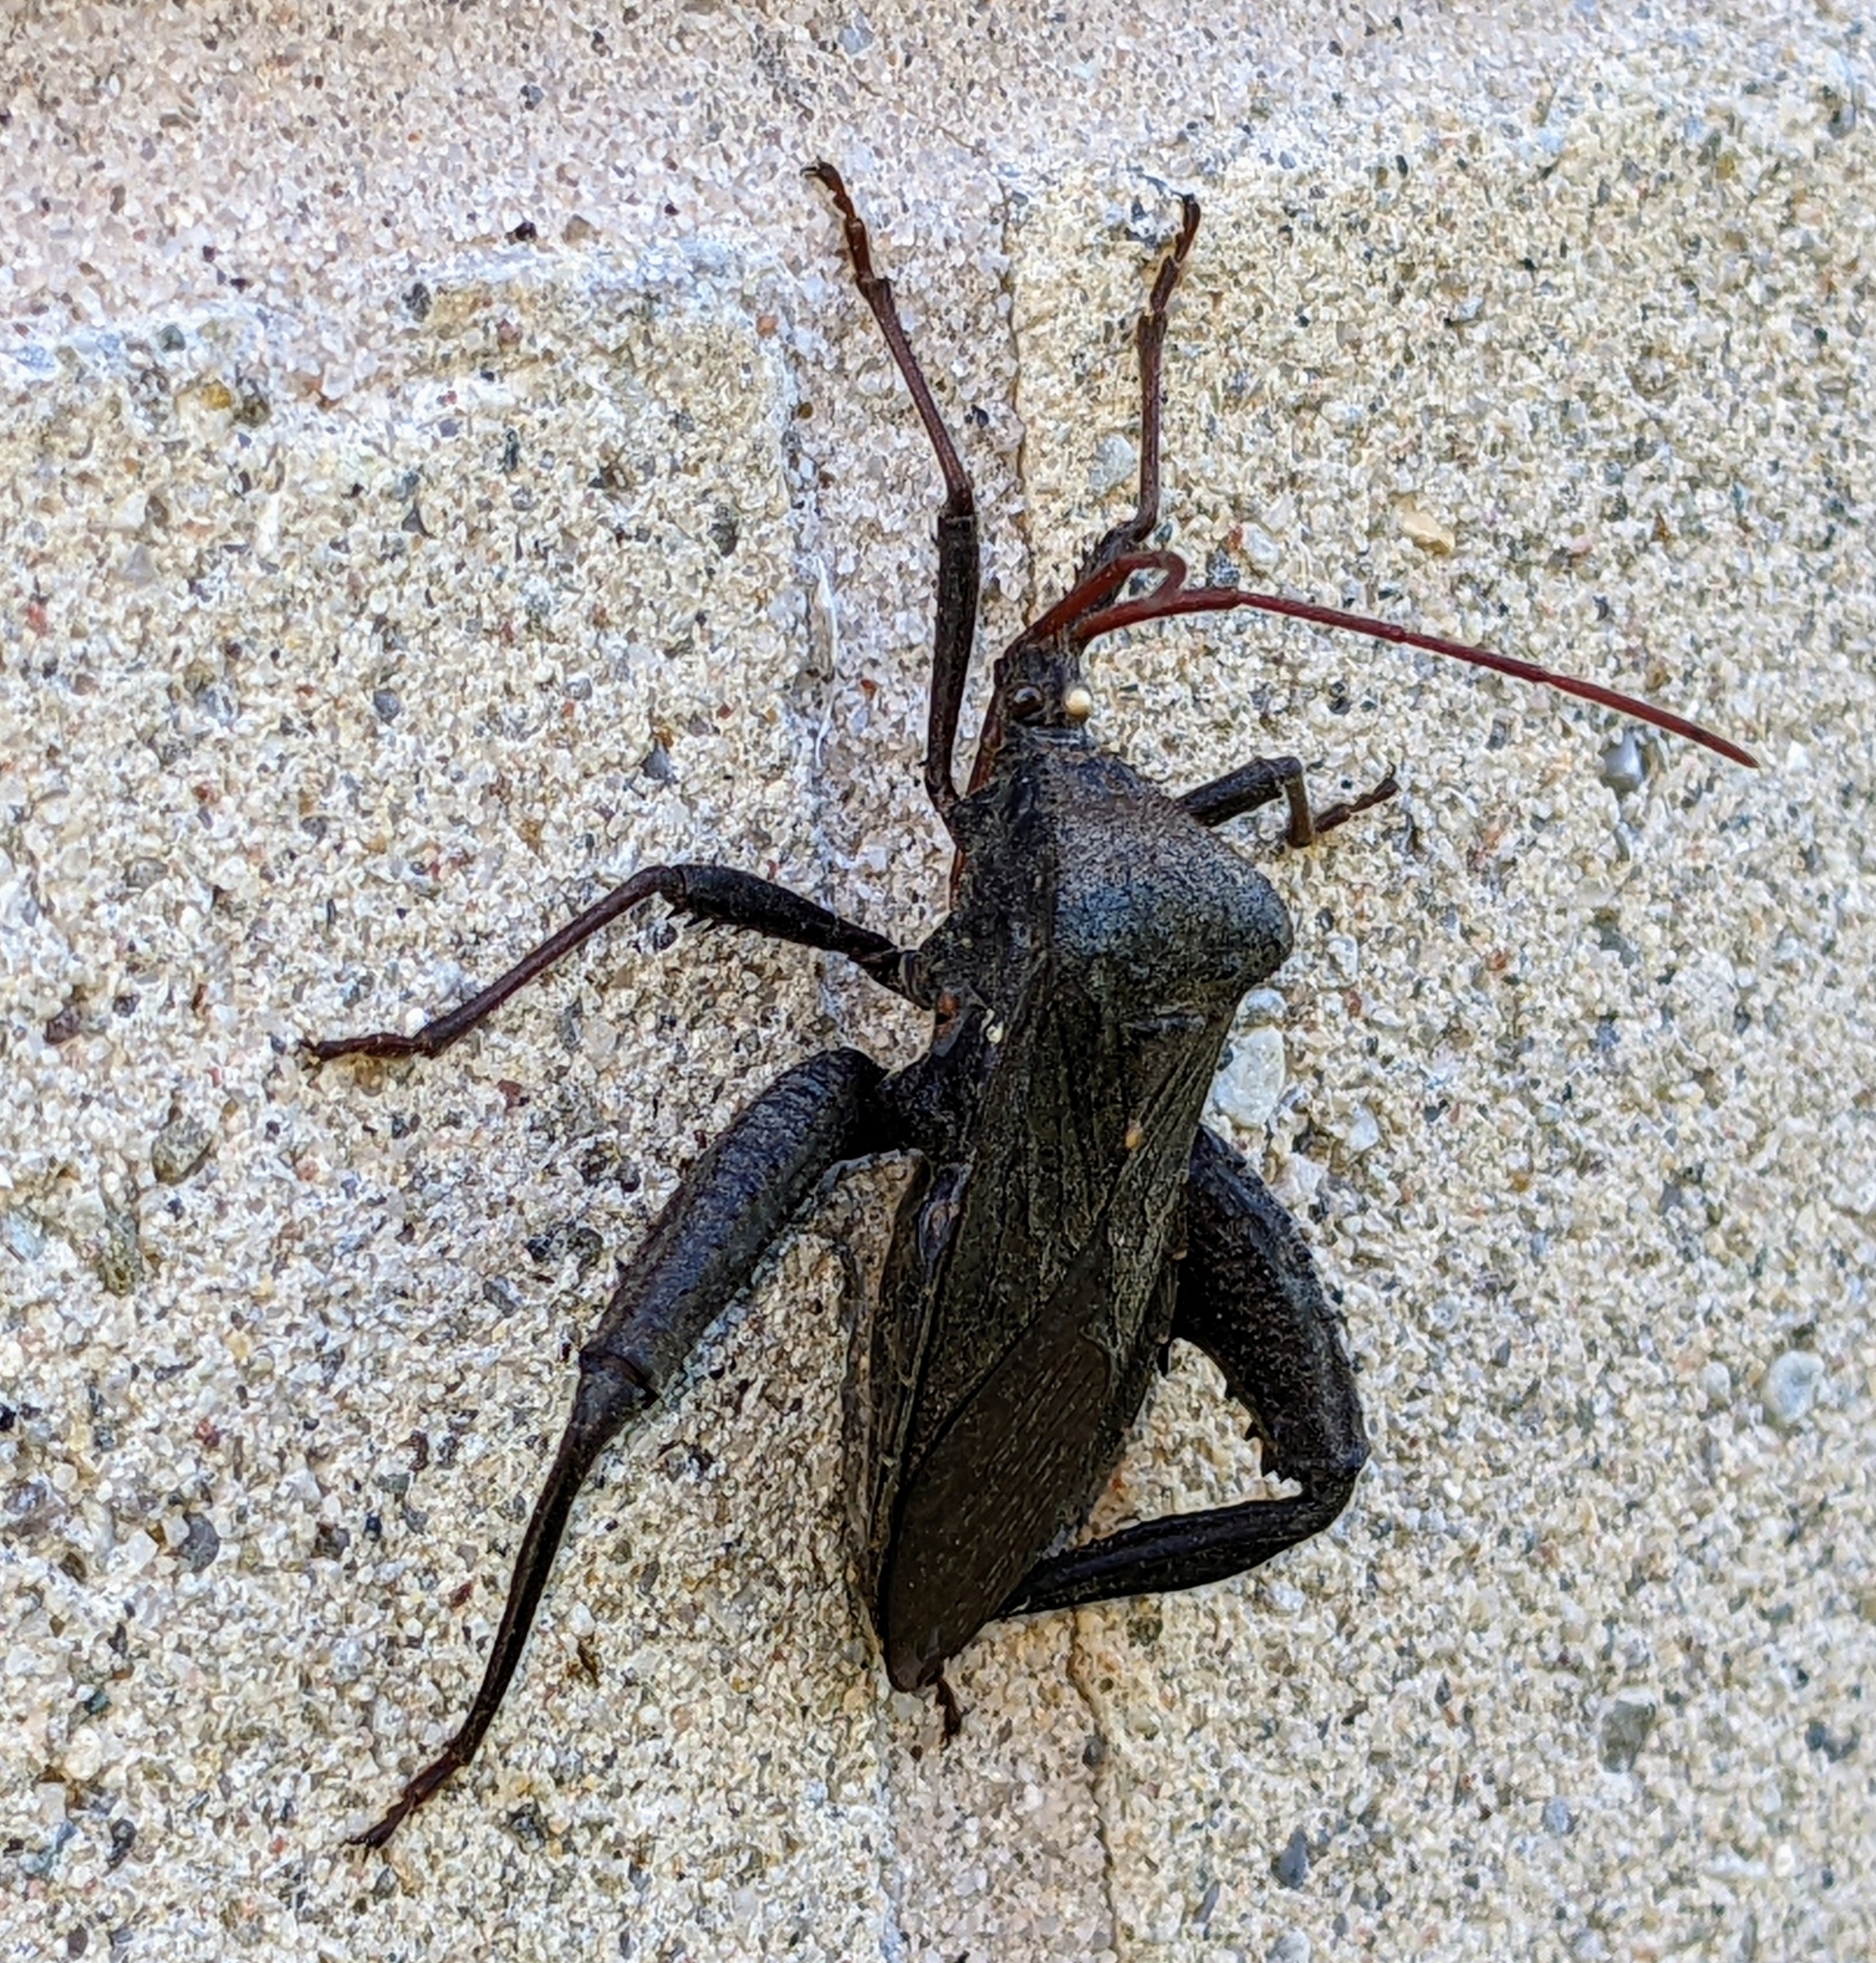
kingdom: Animalia
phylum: Arthropoda
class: Insecta
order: Hemiptera
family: Coreidae
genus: Acanthocephala
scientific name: Acanthocephala femorata
